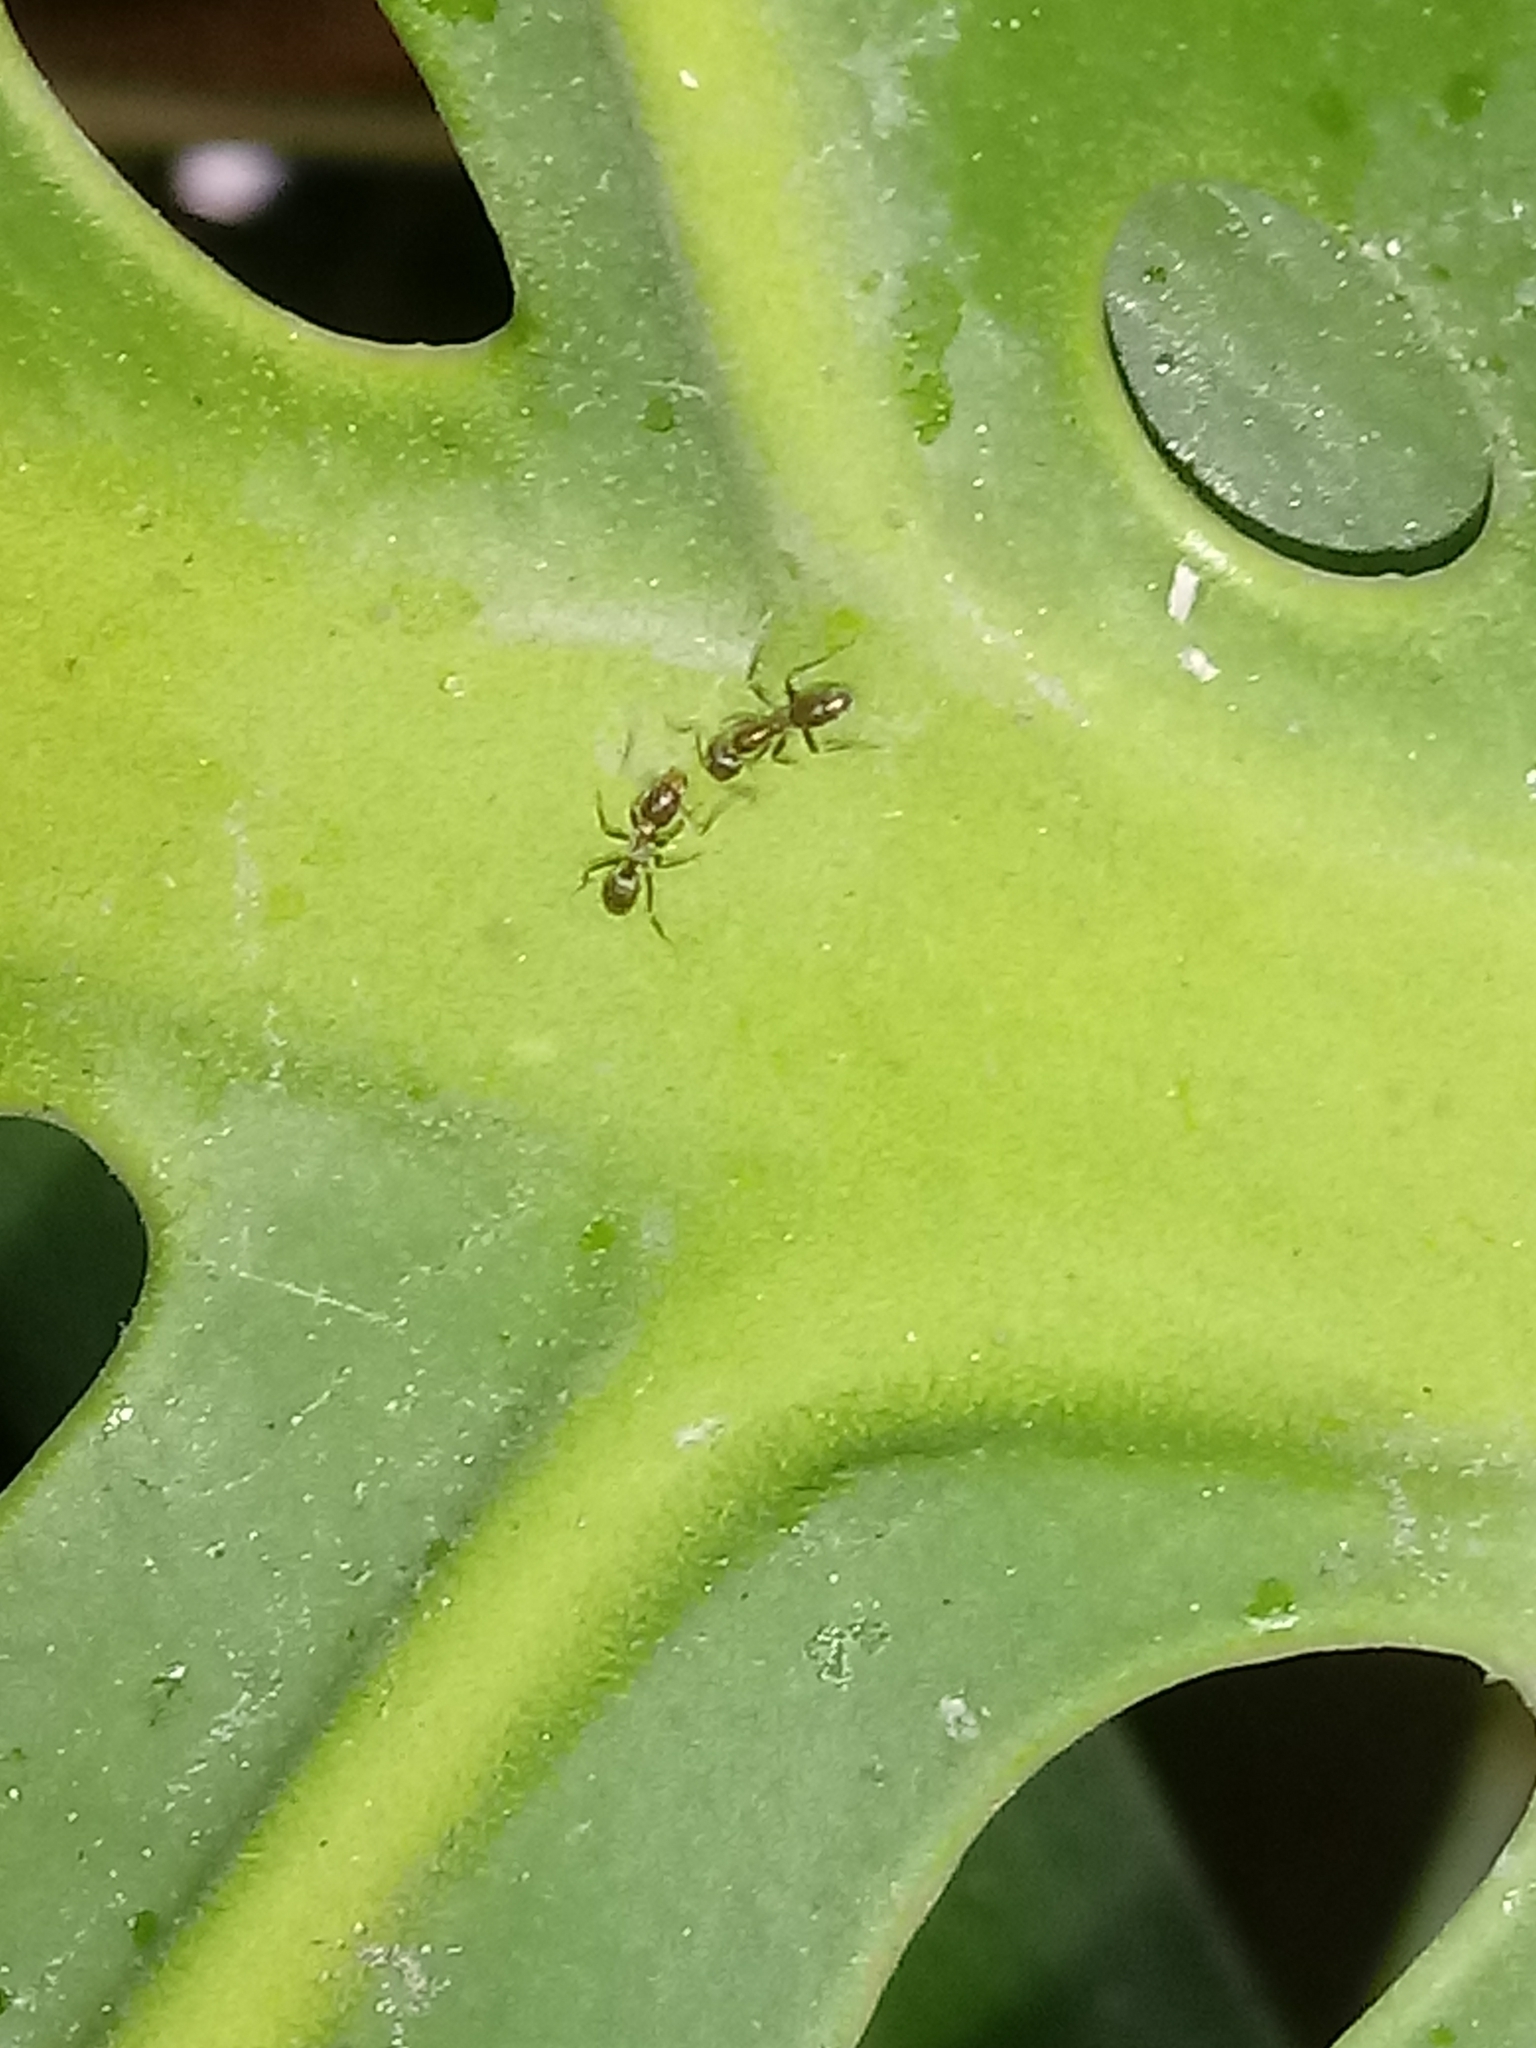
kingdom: Animalia
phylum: Arthropoda
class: Insecta
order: Hymenoptera
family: Formicidae
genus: Linepithema
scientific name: Linepithema humile
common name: Argentine ant
